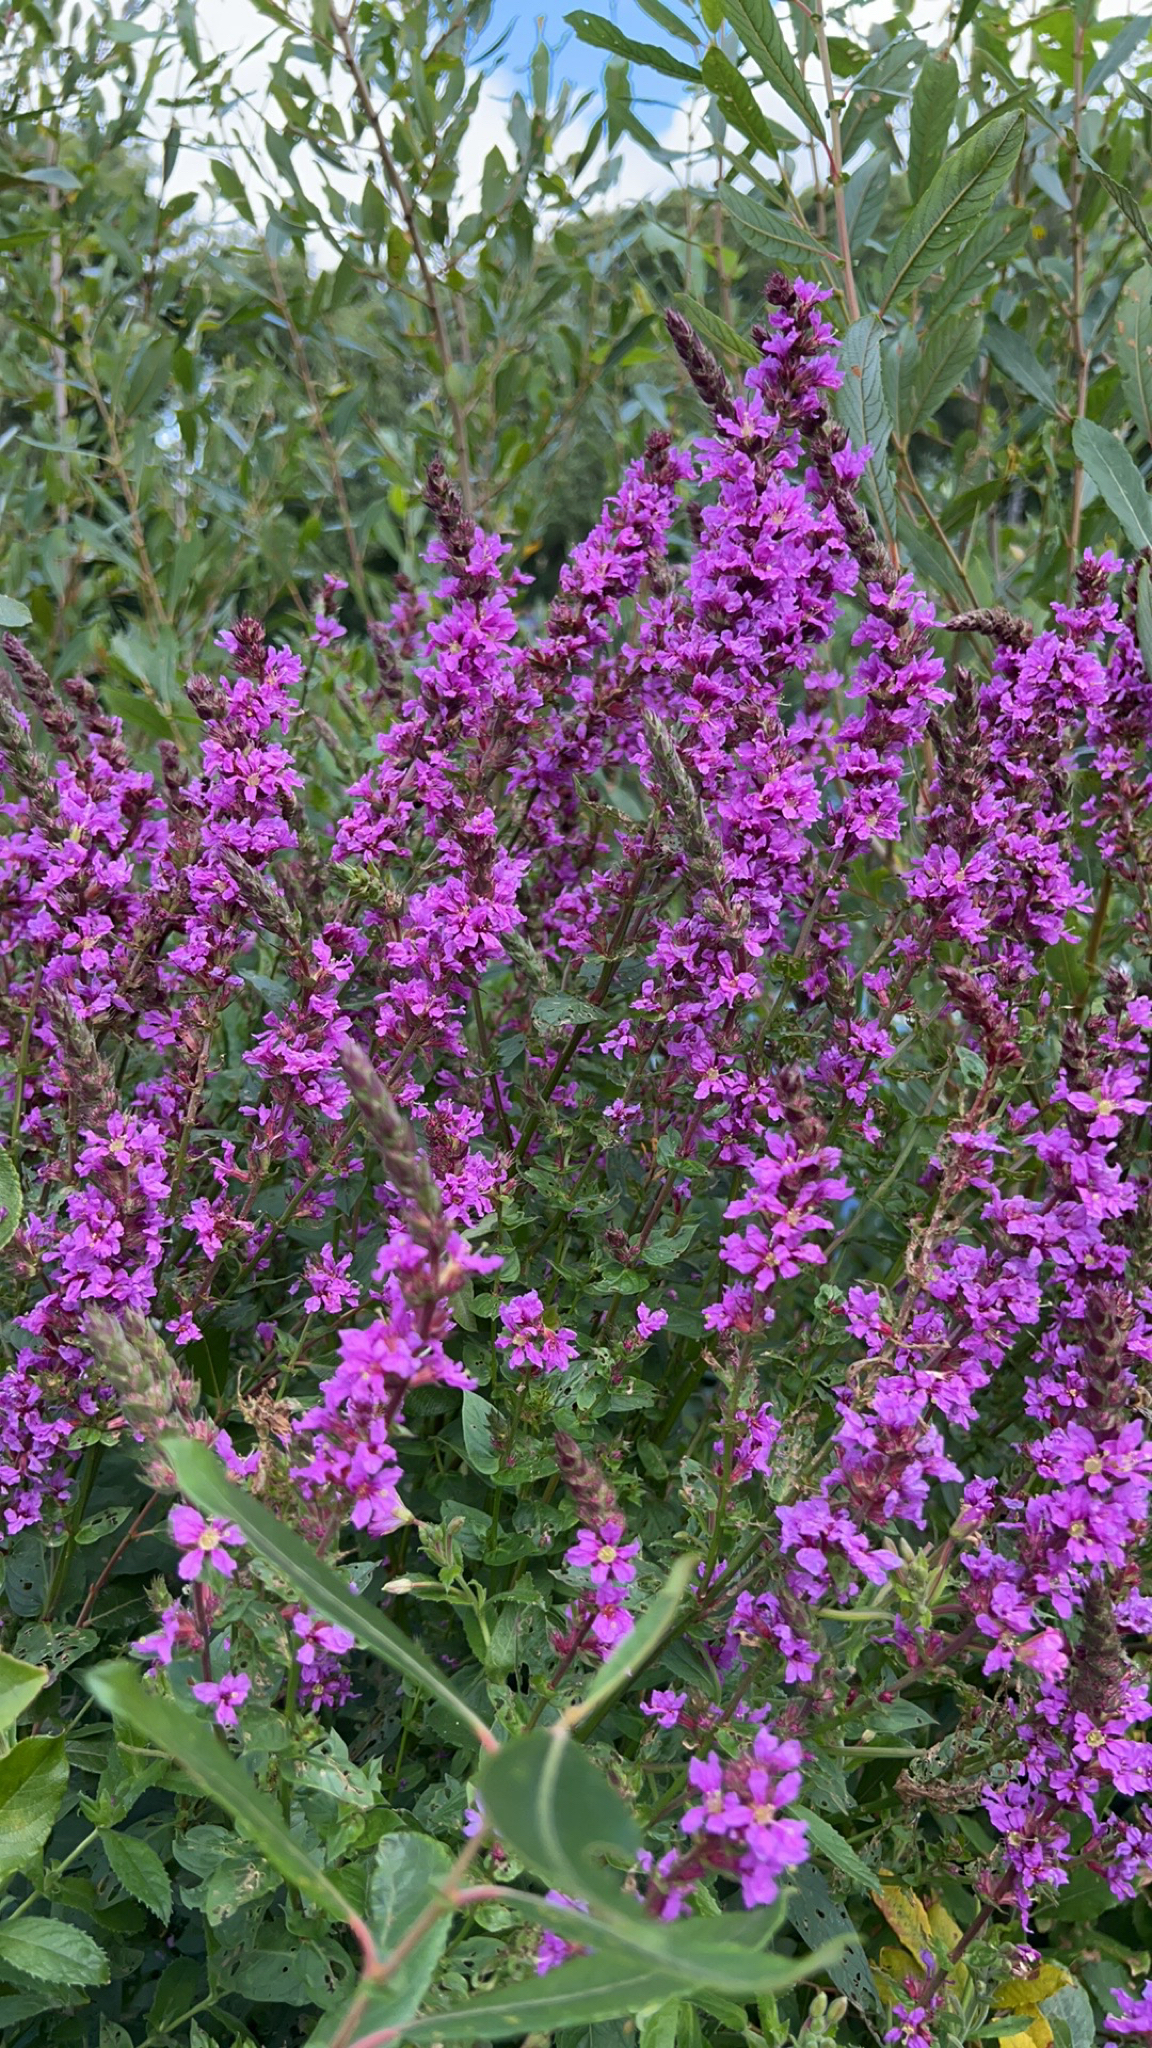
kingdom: Plantae
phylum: Tracheophyta
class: Magnoliopsida
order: Myrtales
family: Lythraceae
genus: Lythrum
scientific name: Lythrum salicaria
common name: Purple loosestrife
